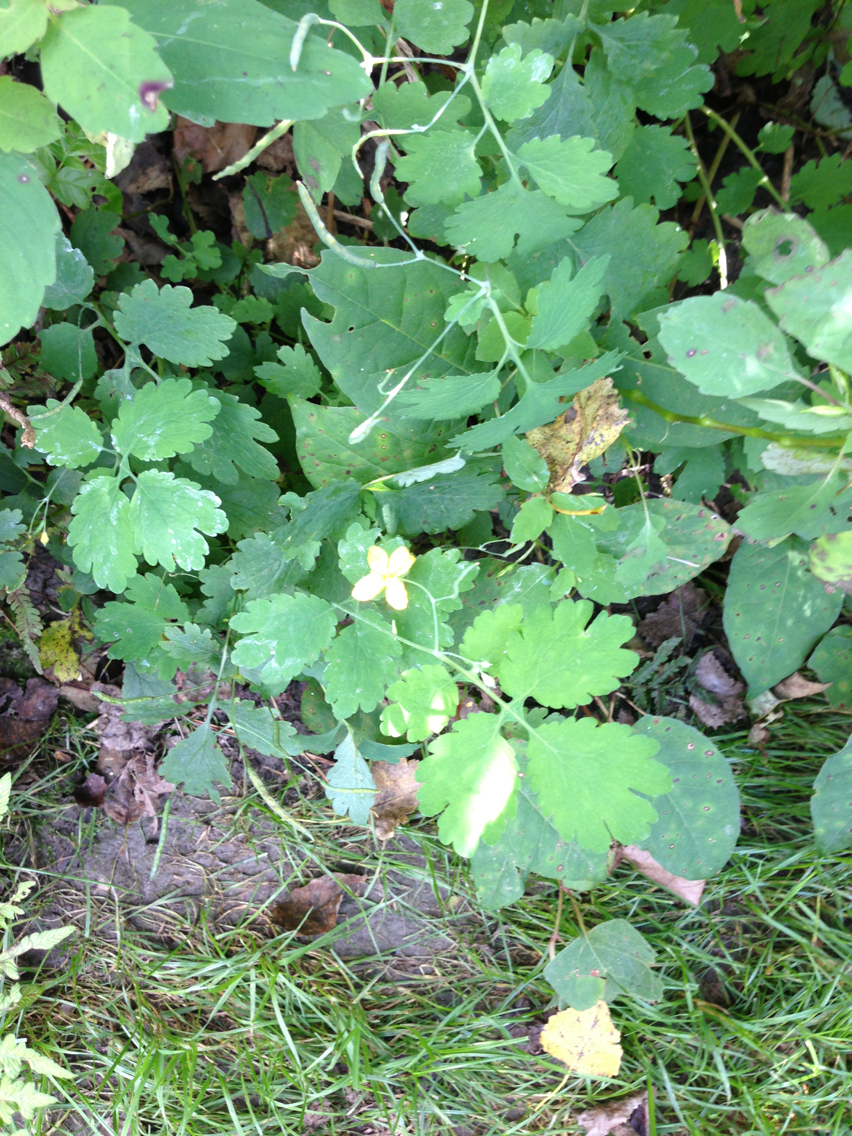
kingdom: Plantae
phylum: Tracheophyta
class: Magnoliopsida
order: Ranunculales
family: Papaveraceae
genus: Chelidonium
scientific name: Chelidonium majus
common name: Greater celandine
